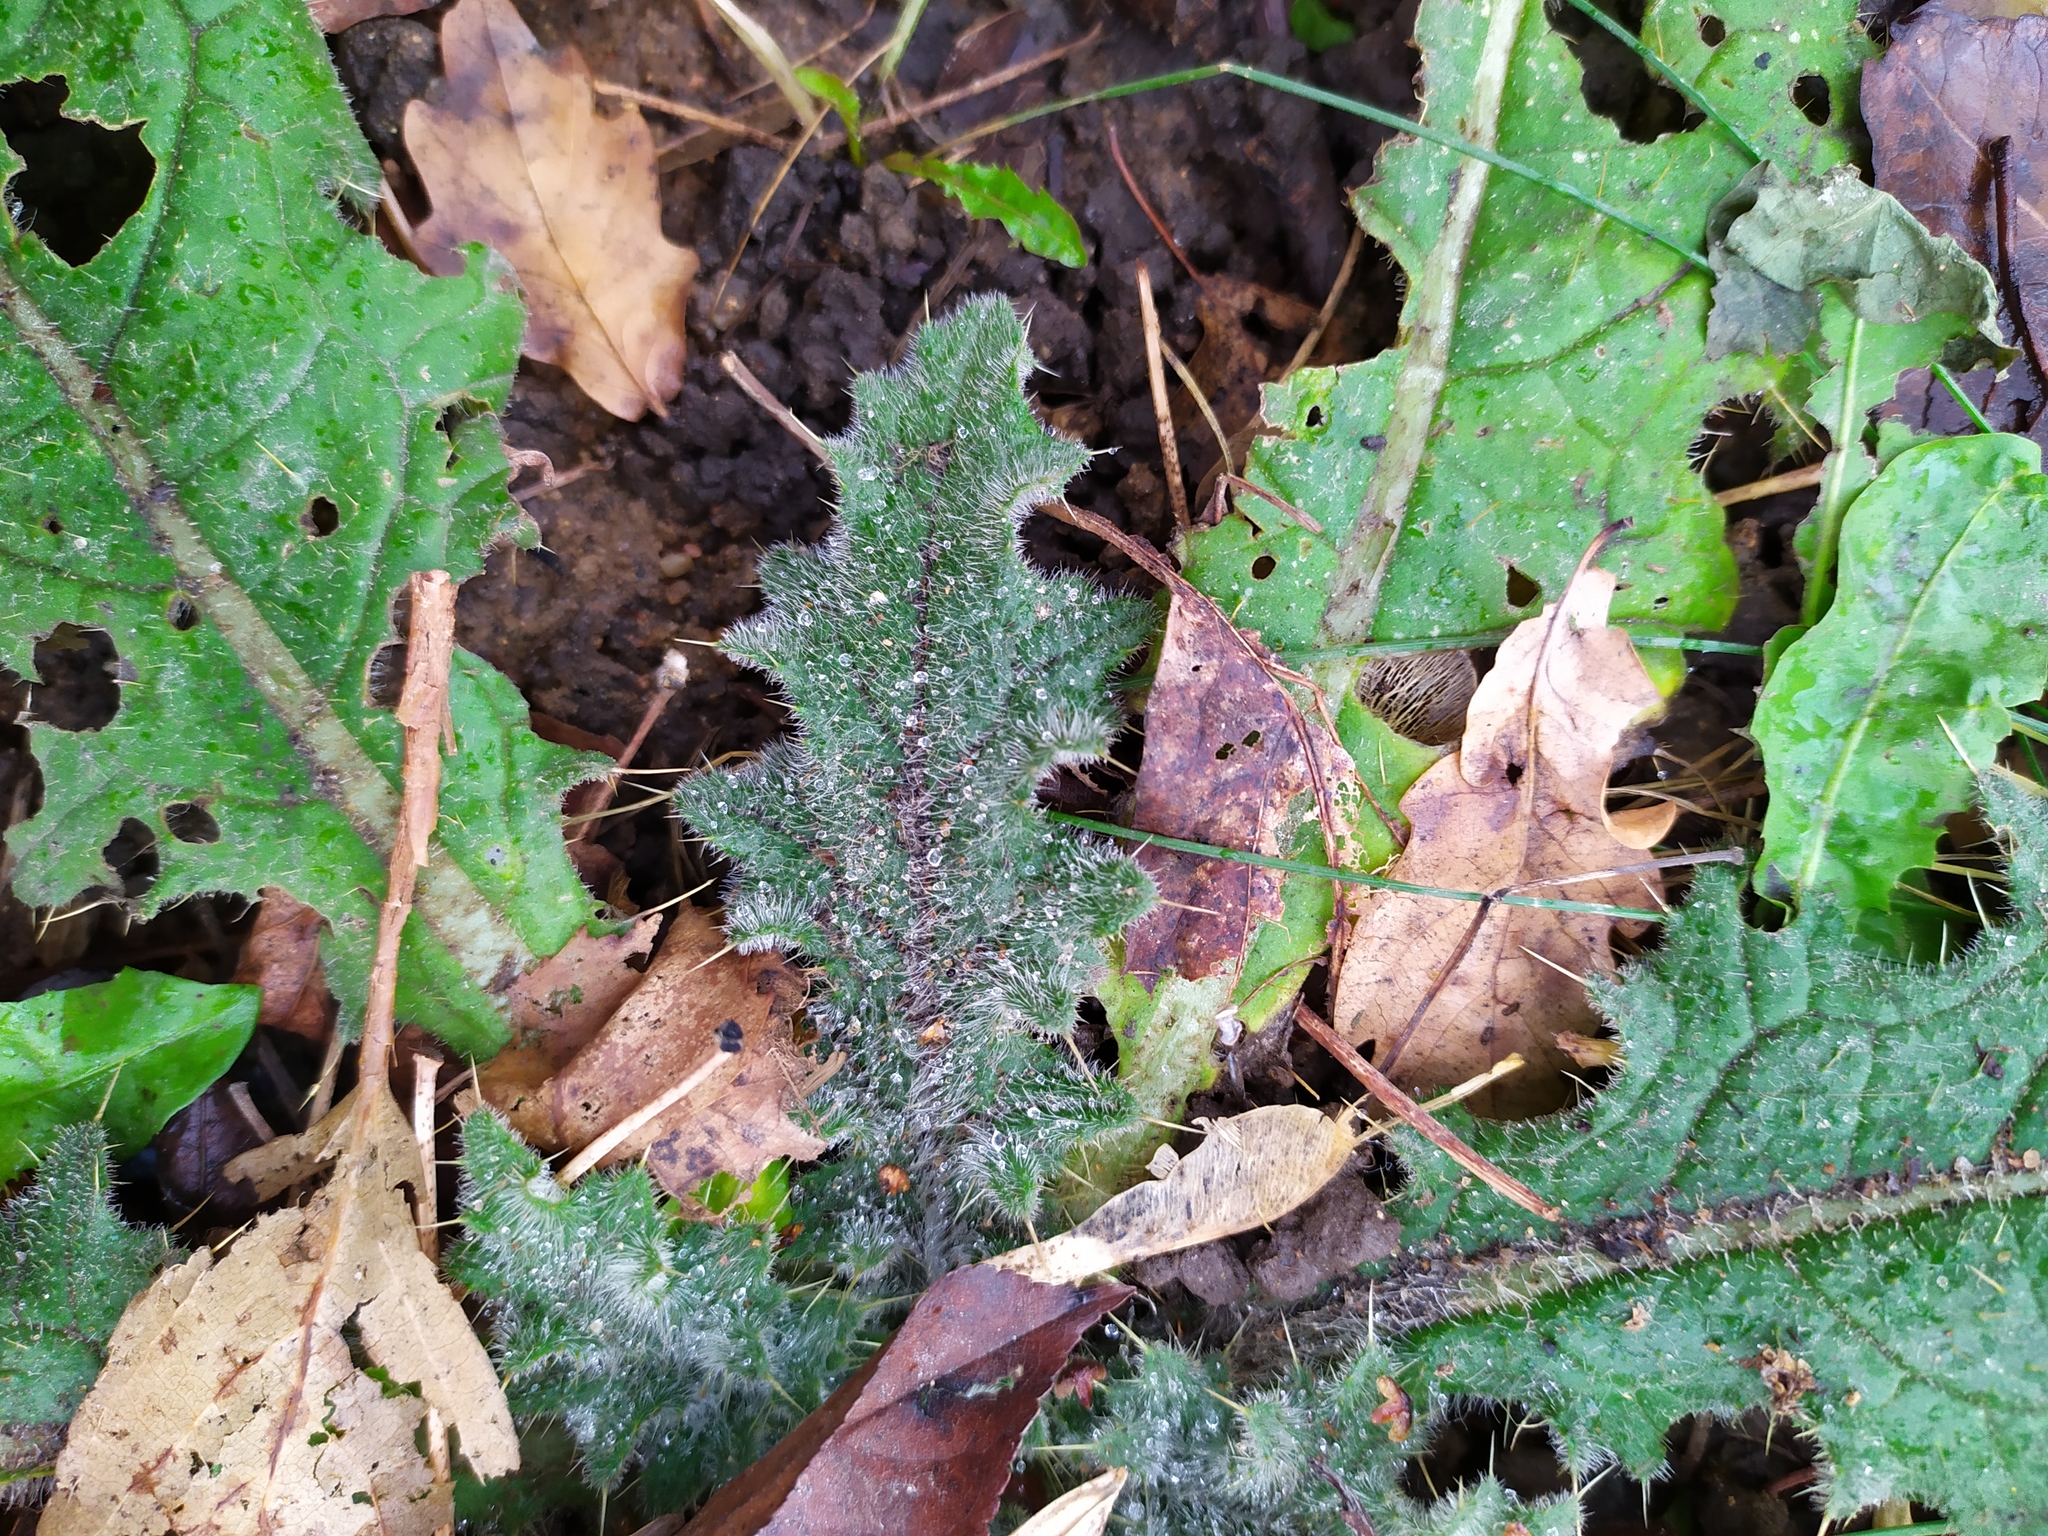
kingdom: Plantae
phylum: Tracheophyta
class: Magnoliopsida
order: Asterales
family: Asteraceae
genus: Cirsium
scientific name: Cirsium vulgare
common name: Bull thistle
